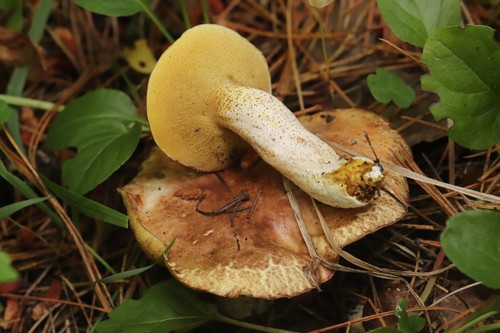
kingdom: Fungi
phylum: Basidiomycota
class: Agaricomycetes
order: Boletales
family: Suillaceae
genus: Suillus
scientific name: Suillus placidus
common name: Slippery white bolete
